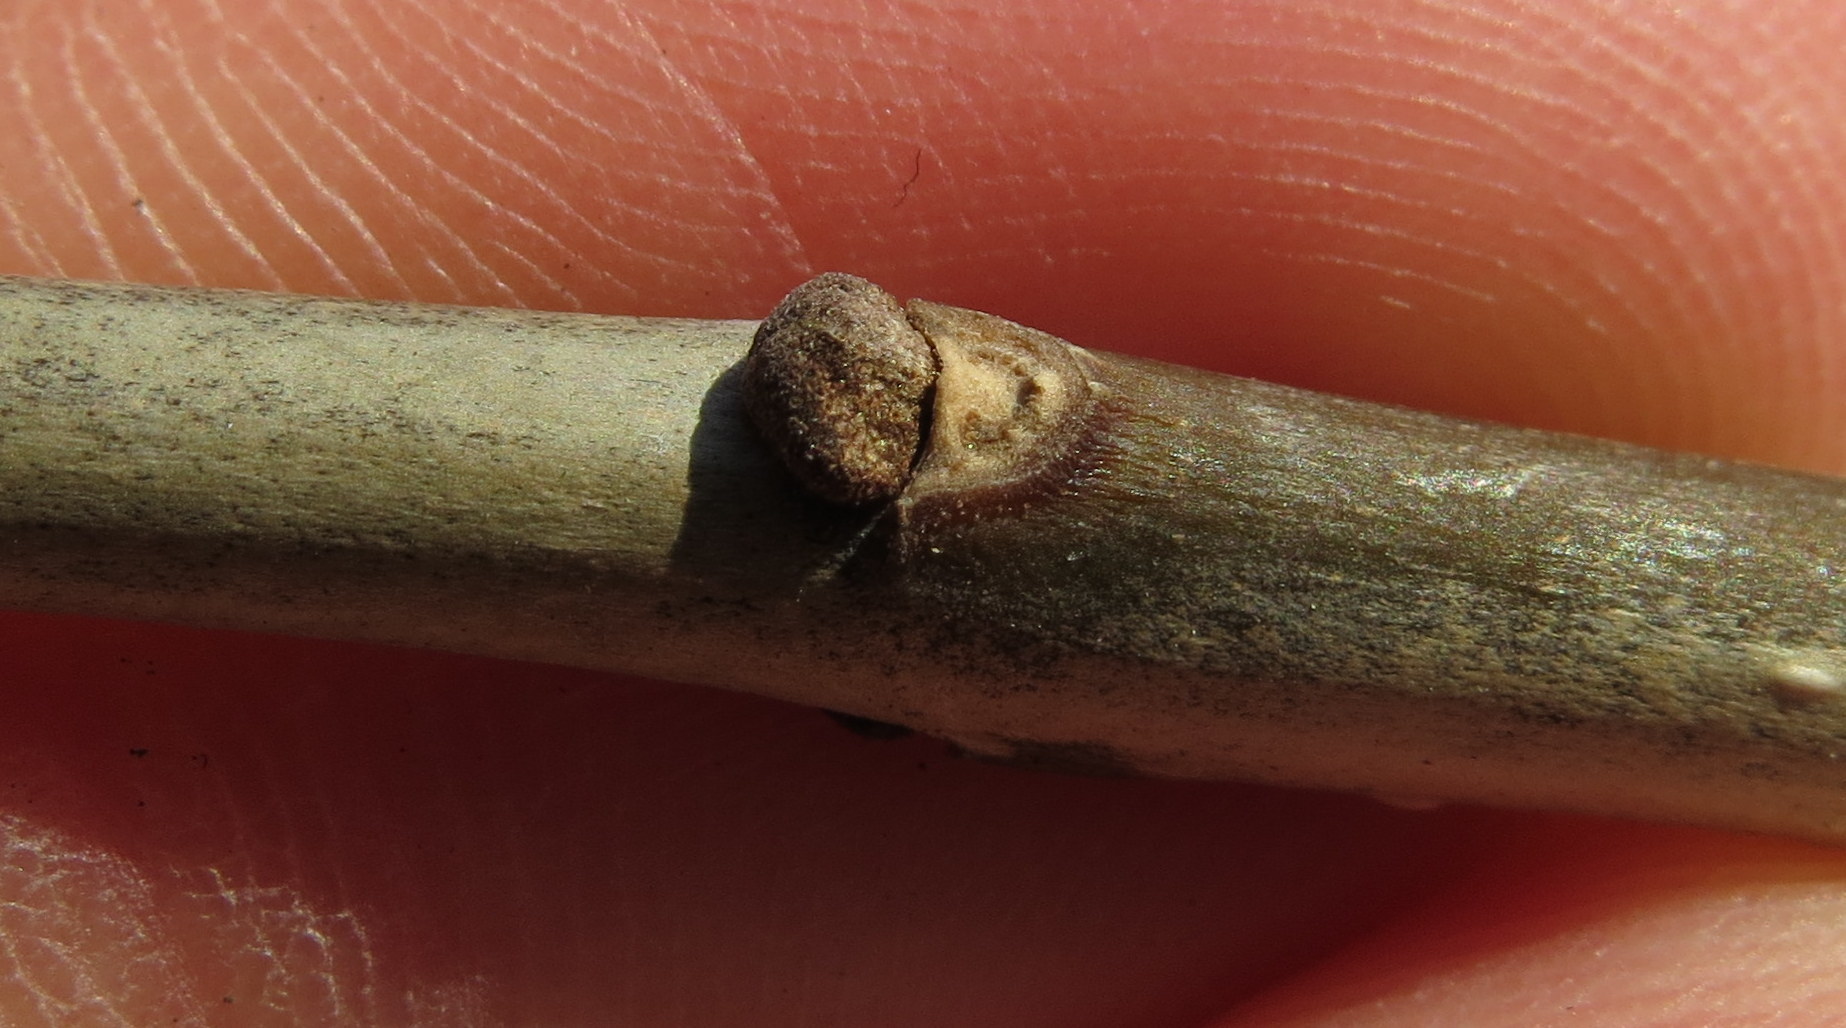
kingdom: Plantae
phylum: Tracheophyta
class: Magnoliopsida
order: Lamiales
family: Oleaceae
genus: Fraxinus
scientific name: Fraxinus pennsylvanica
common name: Green ash
